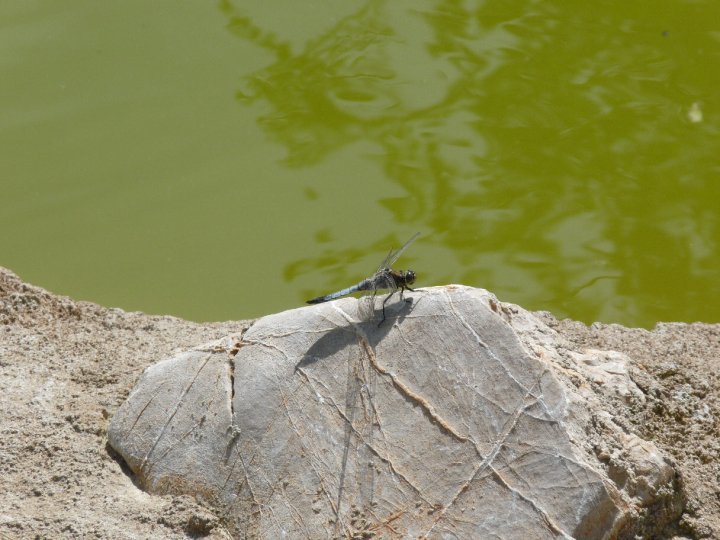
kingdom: Animalia
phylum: Arthropoda
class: Insecta
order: Odonata
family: Libellulidae
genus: Orthetrum
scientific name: Orthetrum cancellatum
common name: Black-tailed skimmer
